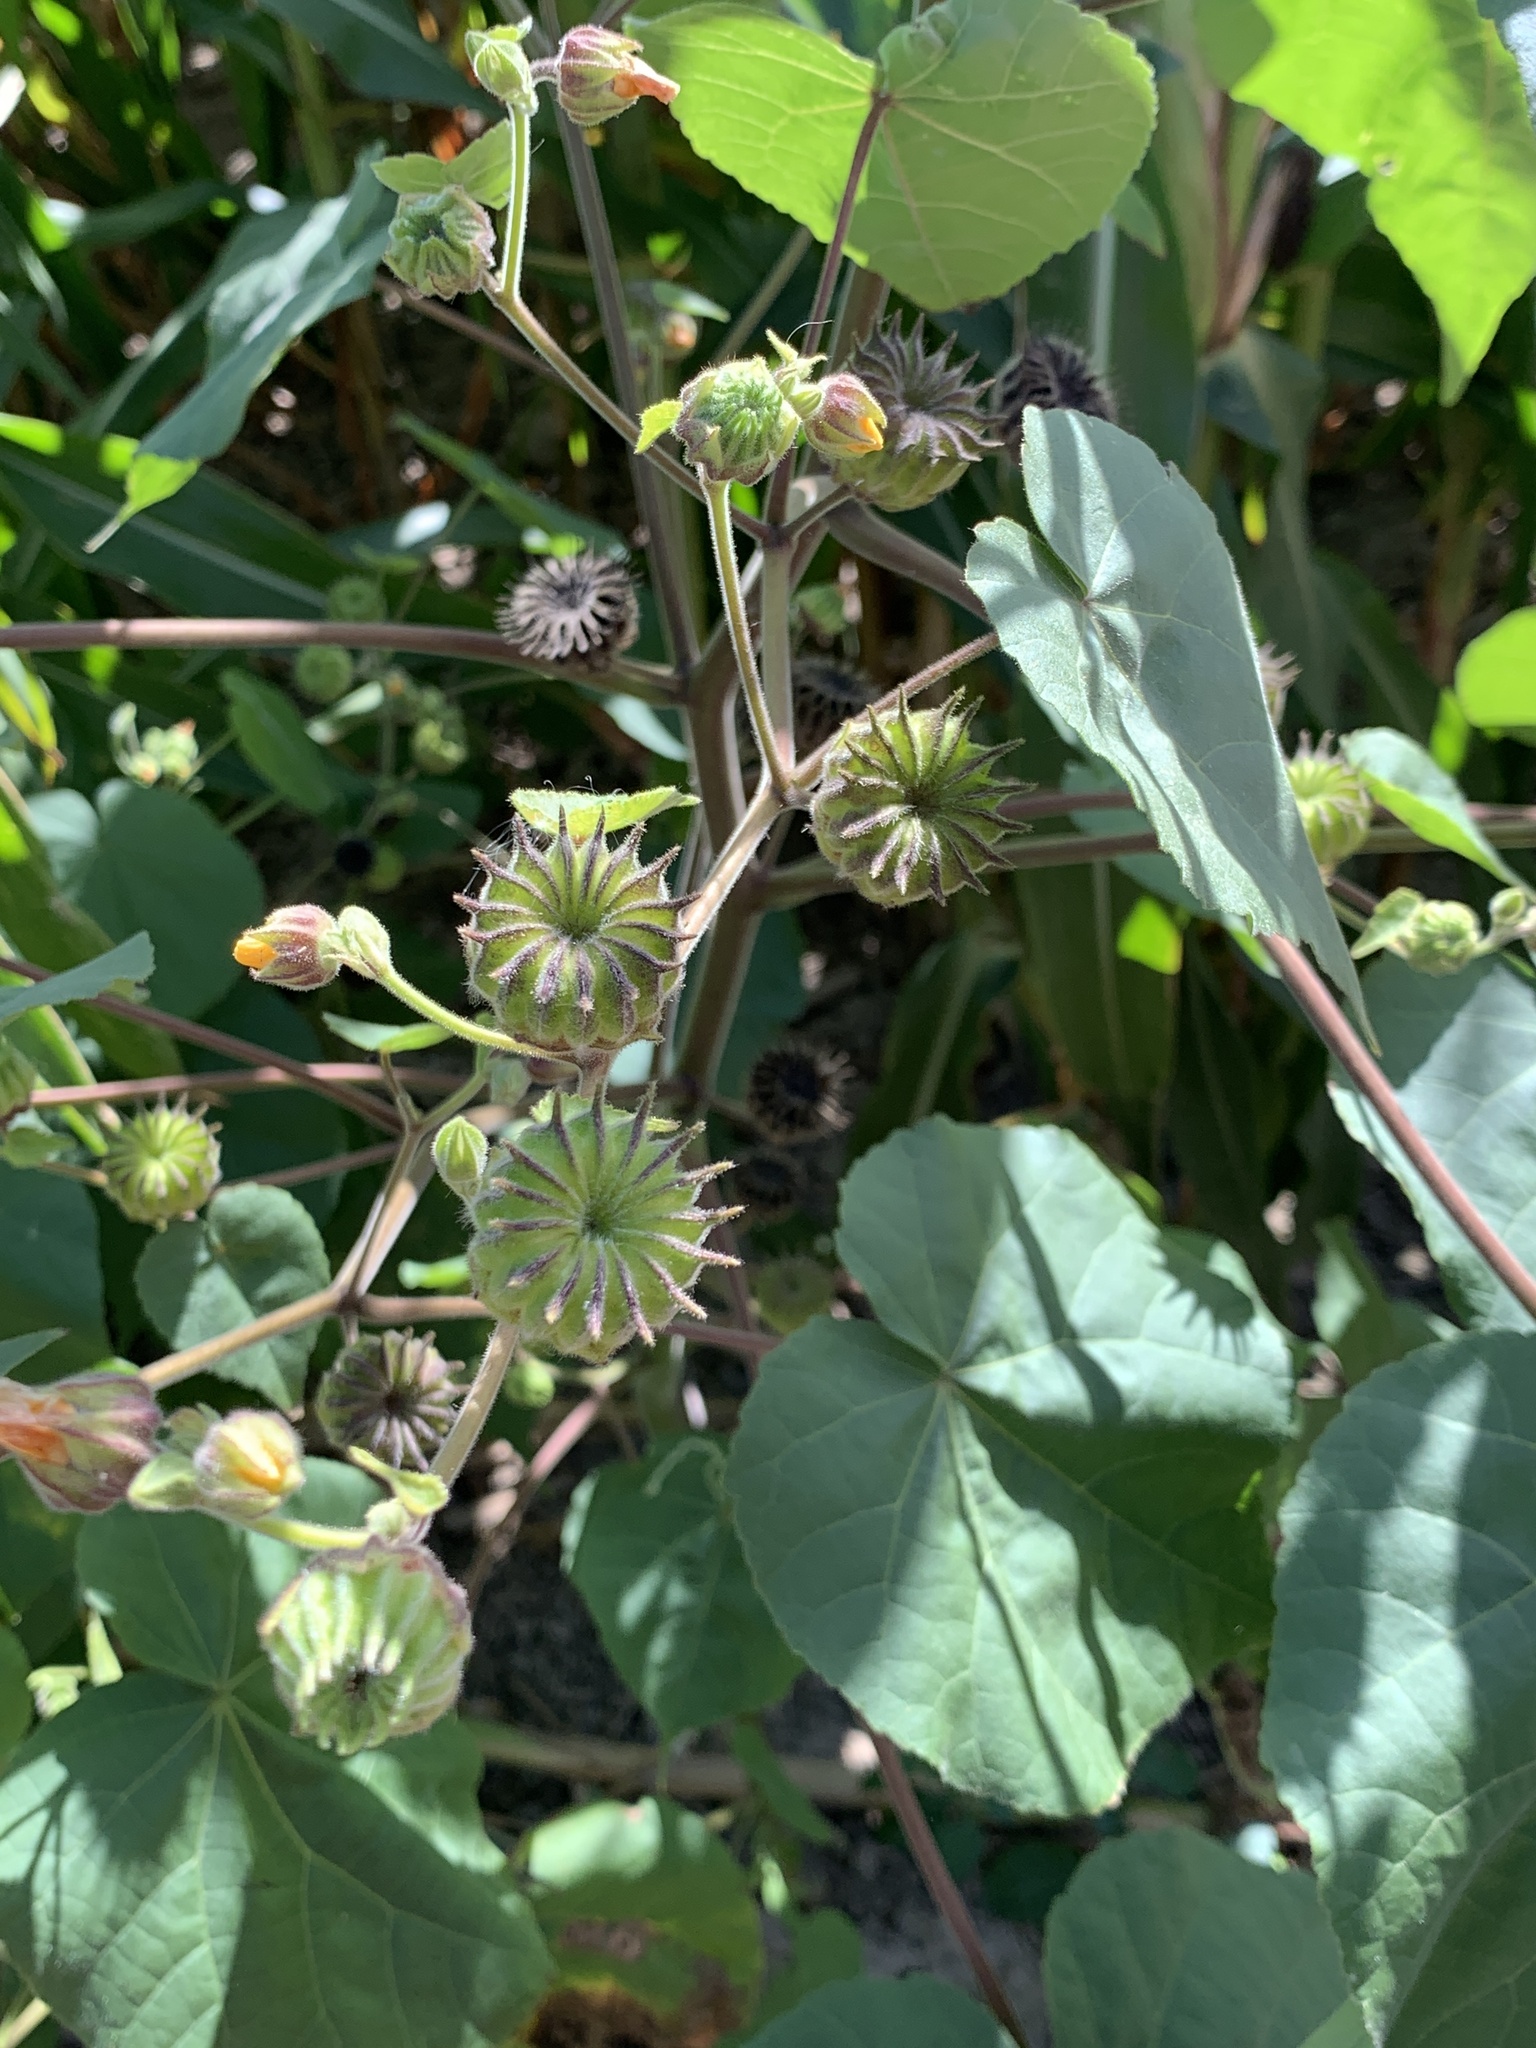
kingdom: Plantae
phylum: Tracheophyta
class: Magnoliopsida
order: Malvales
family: Malvaceae
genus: Abutilon
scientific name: Abutilon theophrasti
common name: Velvetleaf
